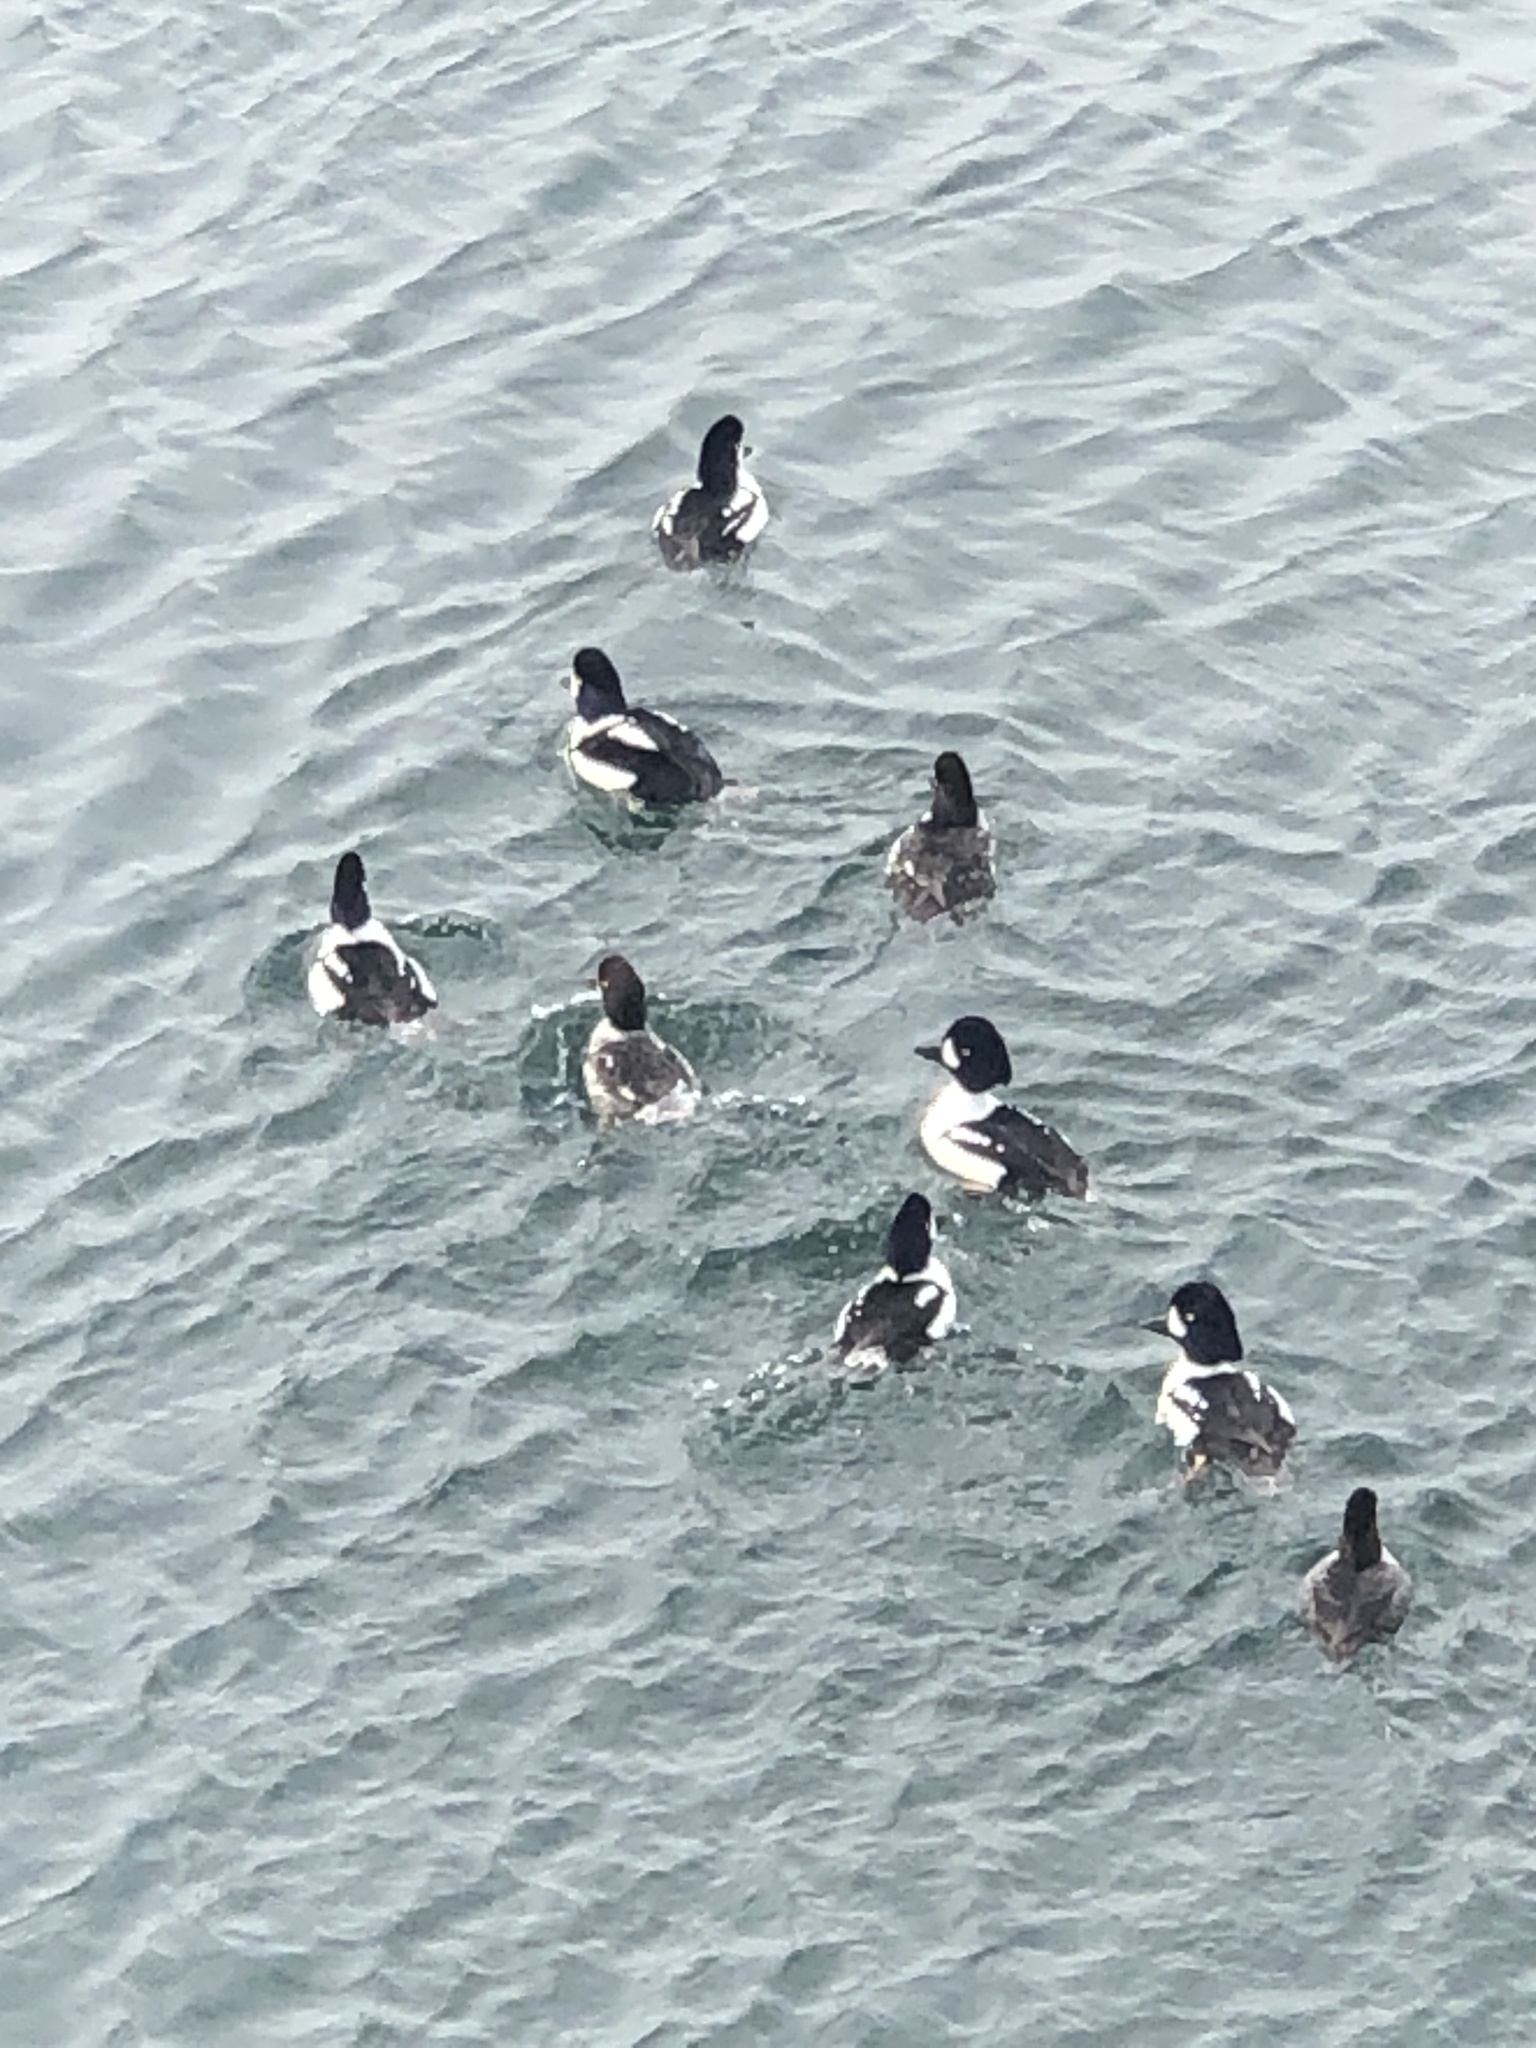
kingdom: Animalia
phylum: Chordata
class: Aves
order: Anseriformes
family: Anatidae
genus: Bucephala
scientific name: Bucephala islandica
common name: Barrow's goldeneye
